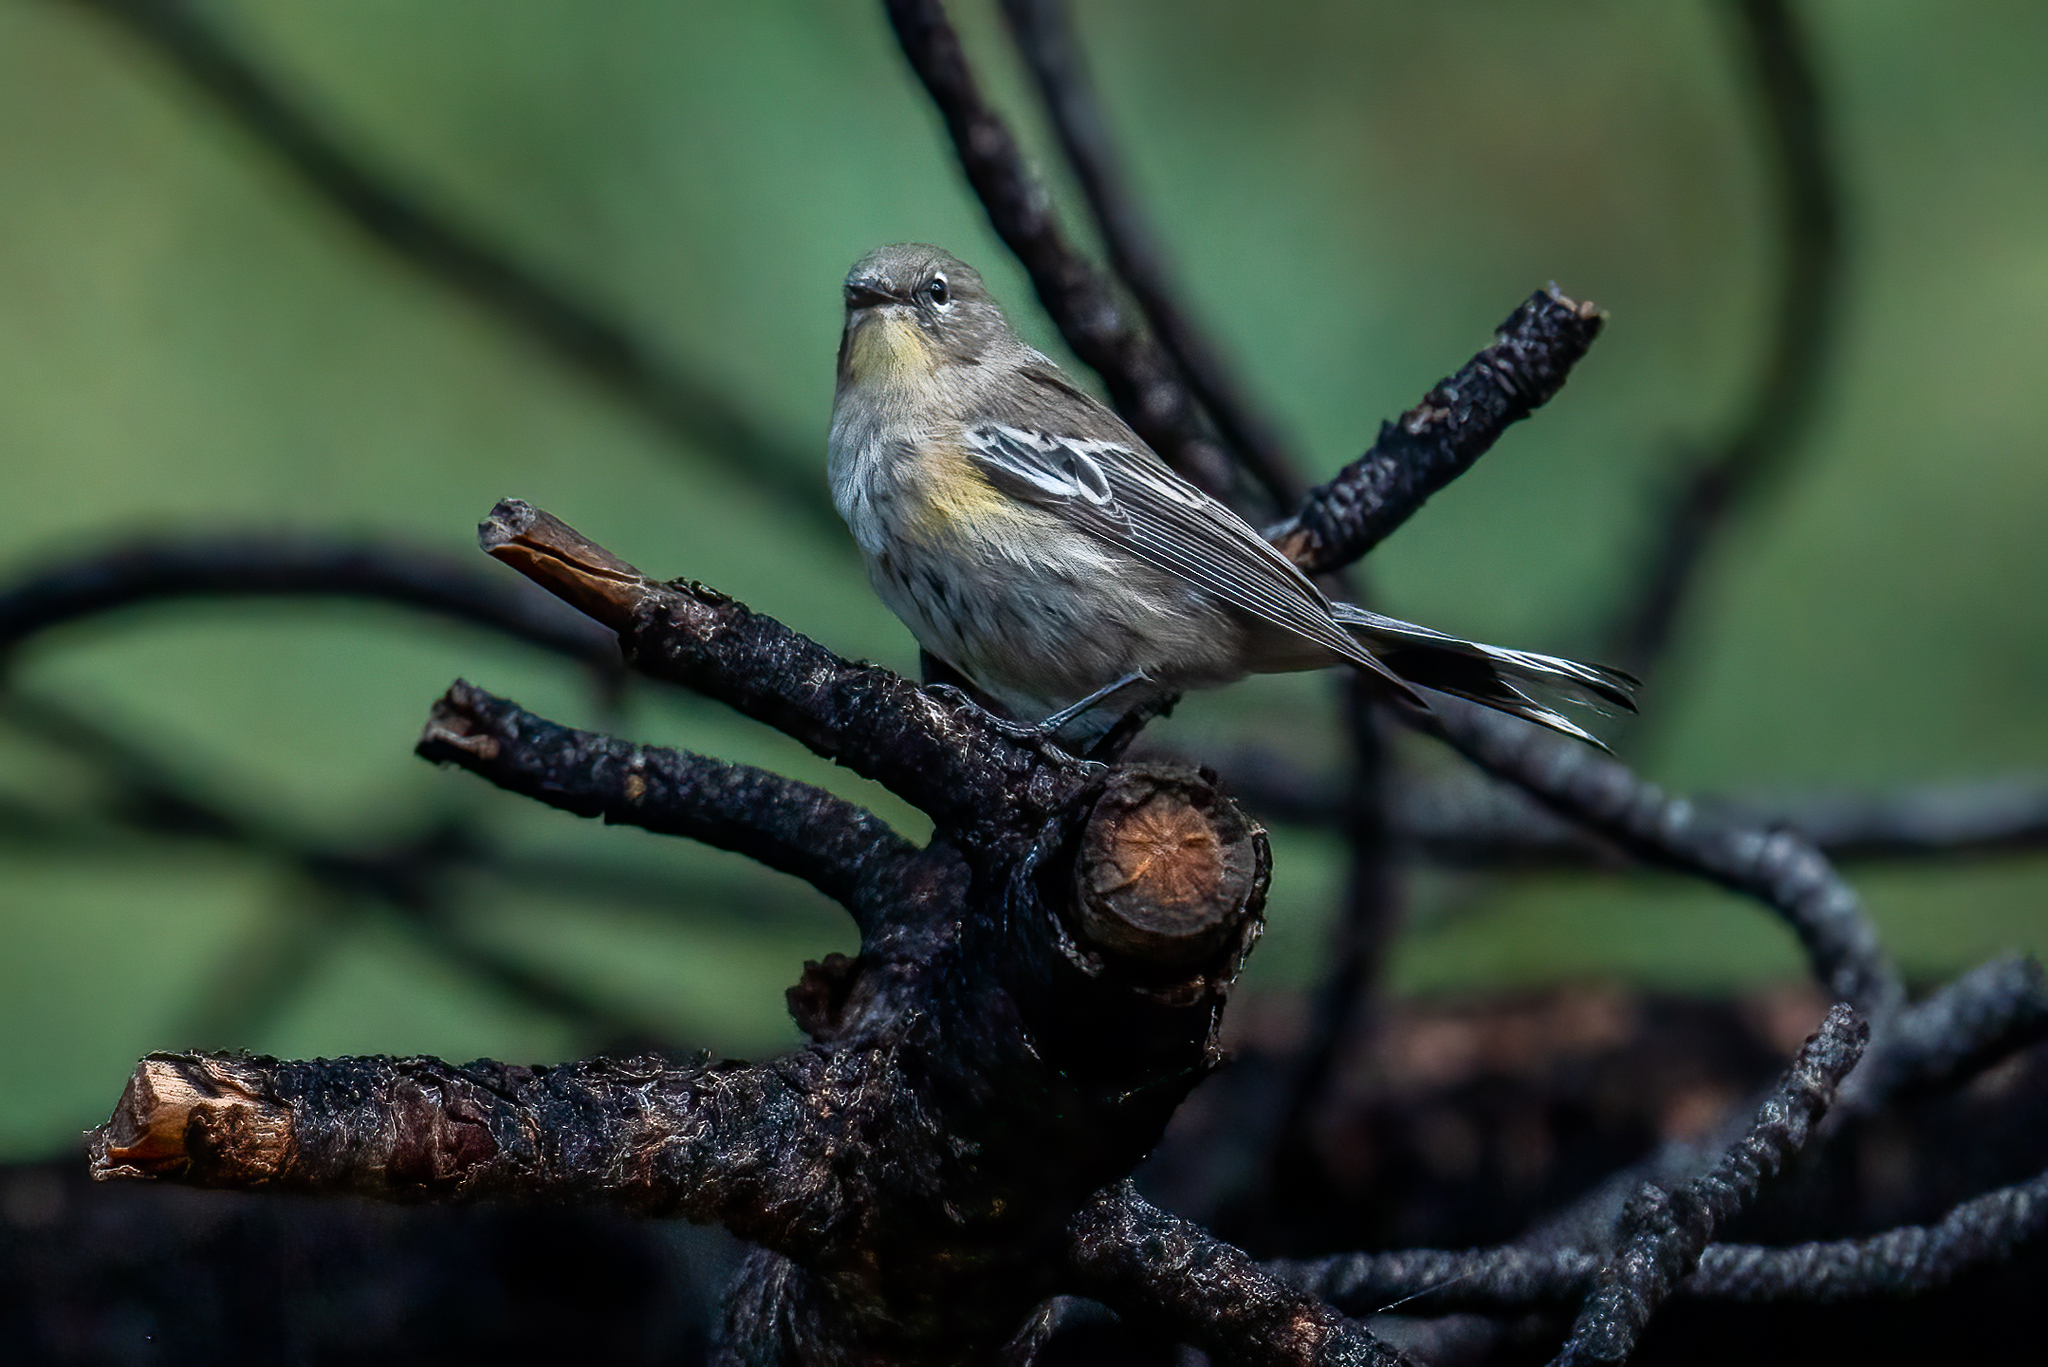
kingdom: Animalia
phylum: Chordata
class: Aves
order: Passeriformes
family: Parulidae
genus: Setophaga
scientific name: Setophaga coronata
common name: Myrtle warbler
